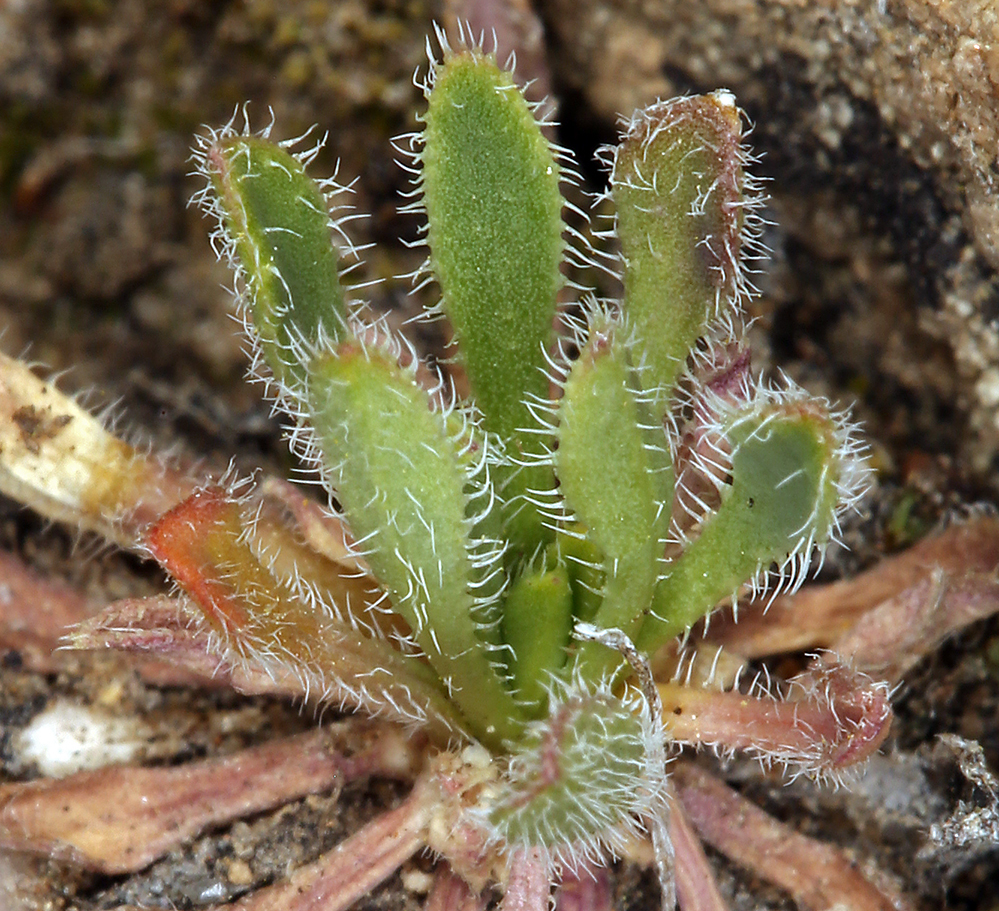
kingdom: Plantae
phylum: Tracheophyta
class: Magnoliopsida
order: Brassicales
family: Brassicaceae
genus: Boechera
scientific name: Boechera pendulina
